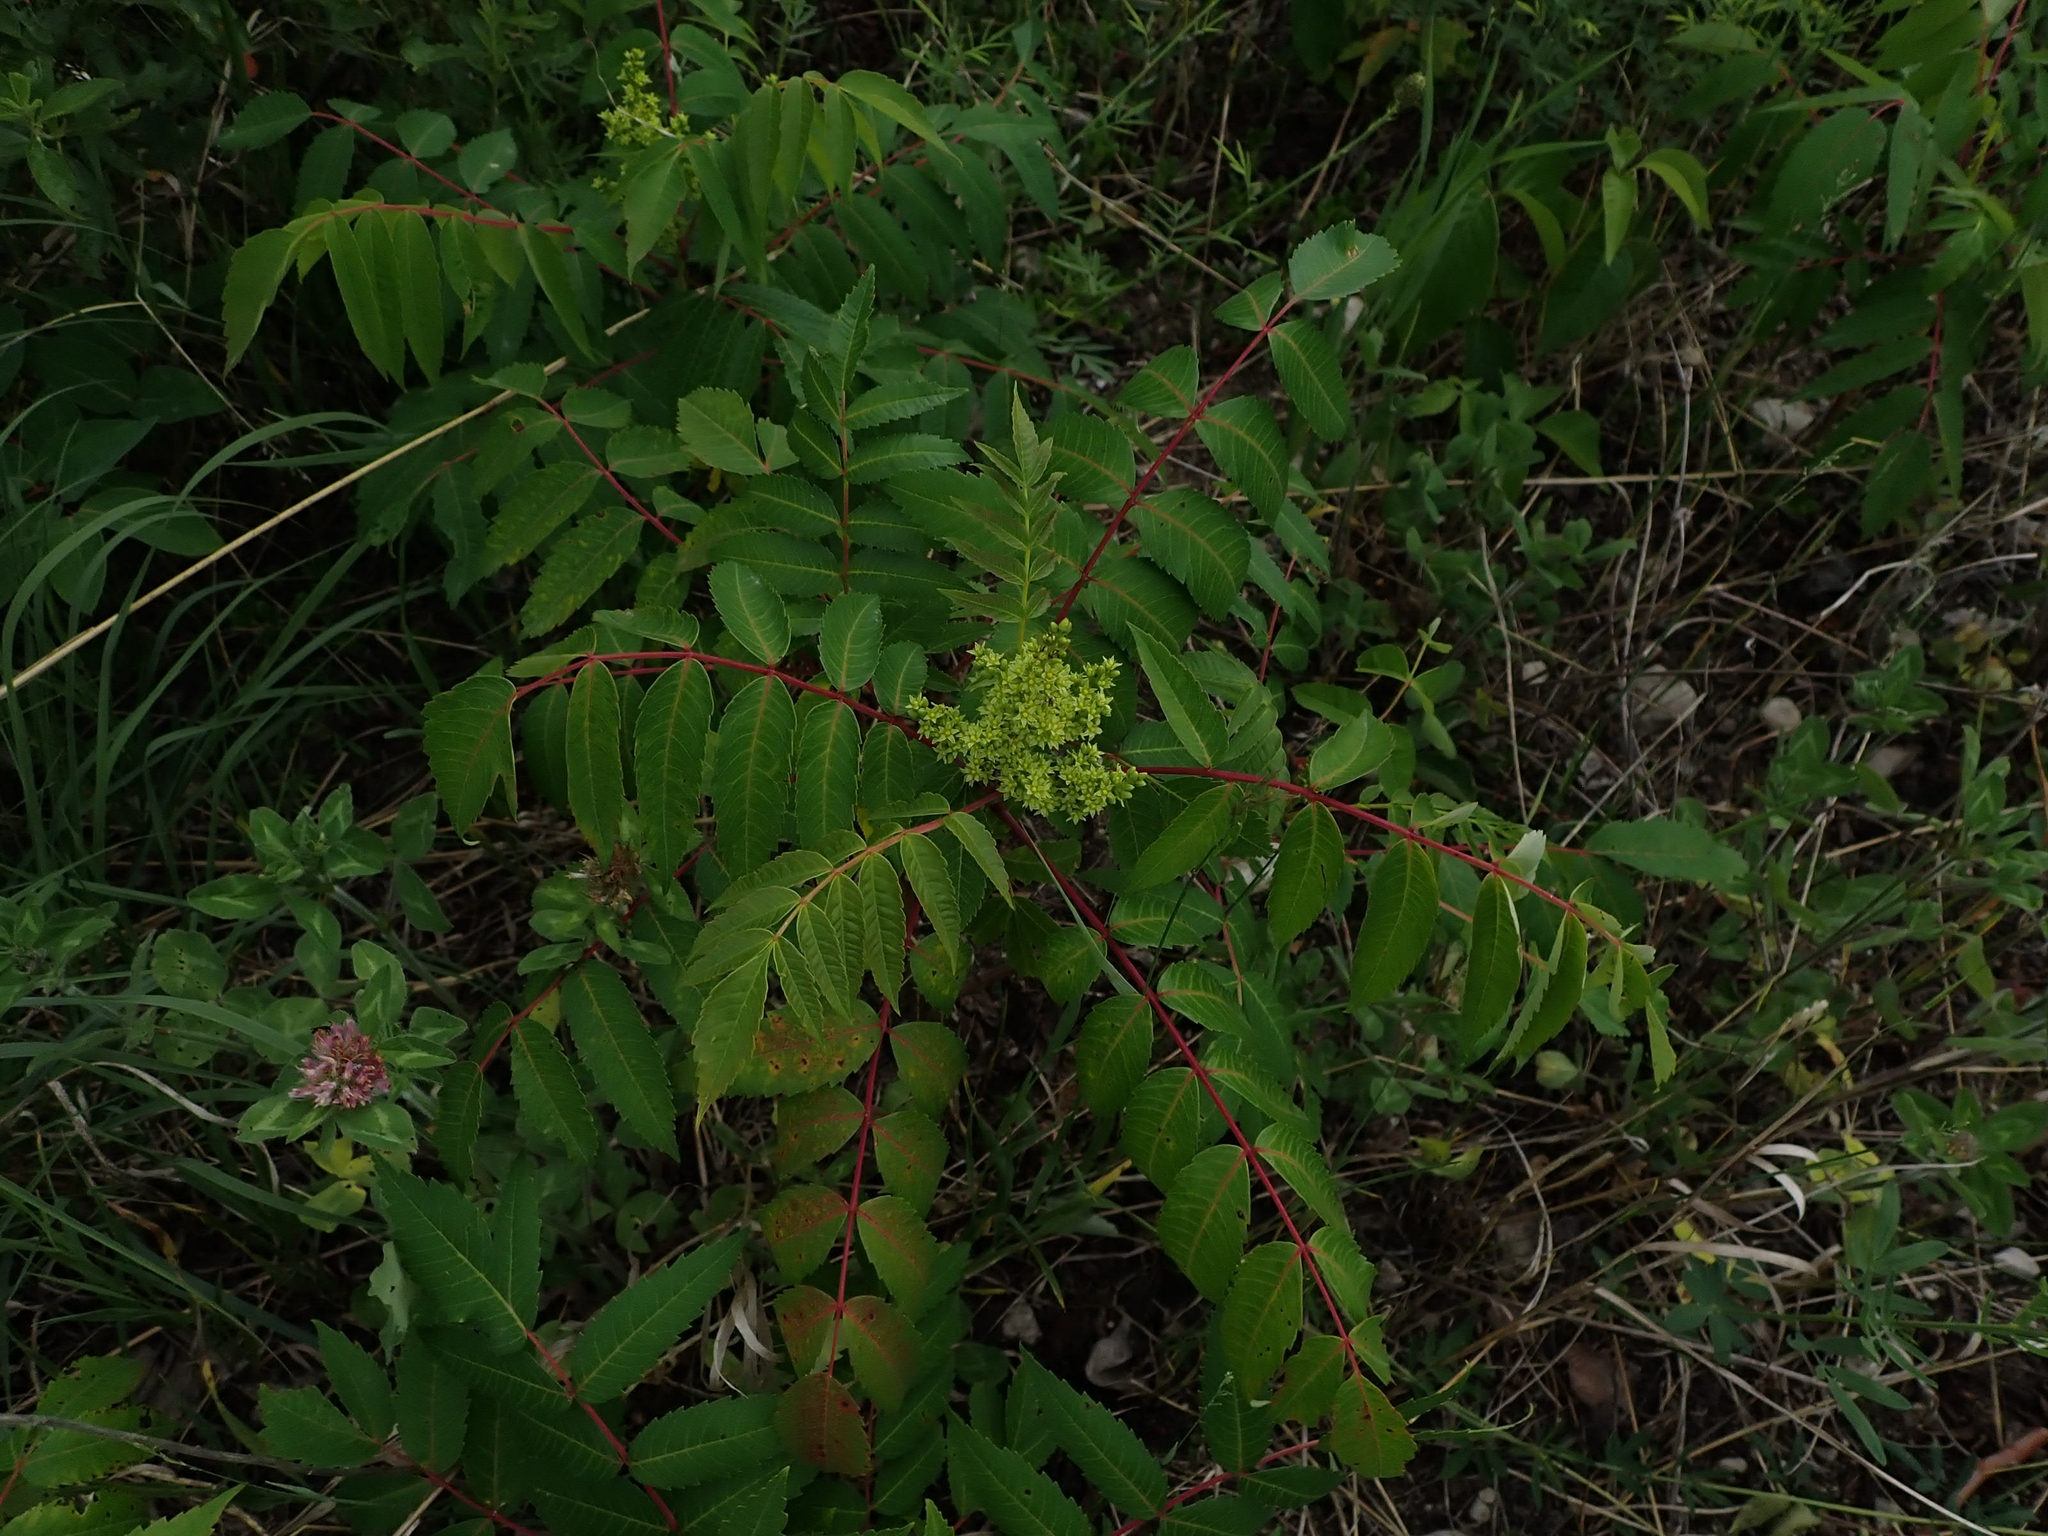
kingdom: Plantae
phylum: Tracheophyta
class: Magnoliopsida
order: Sapindales
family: Anacardiaceae
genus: Rhus
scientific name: Rhus glabra
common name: Scarlet sumac
